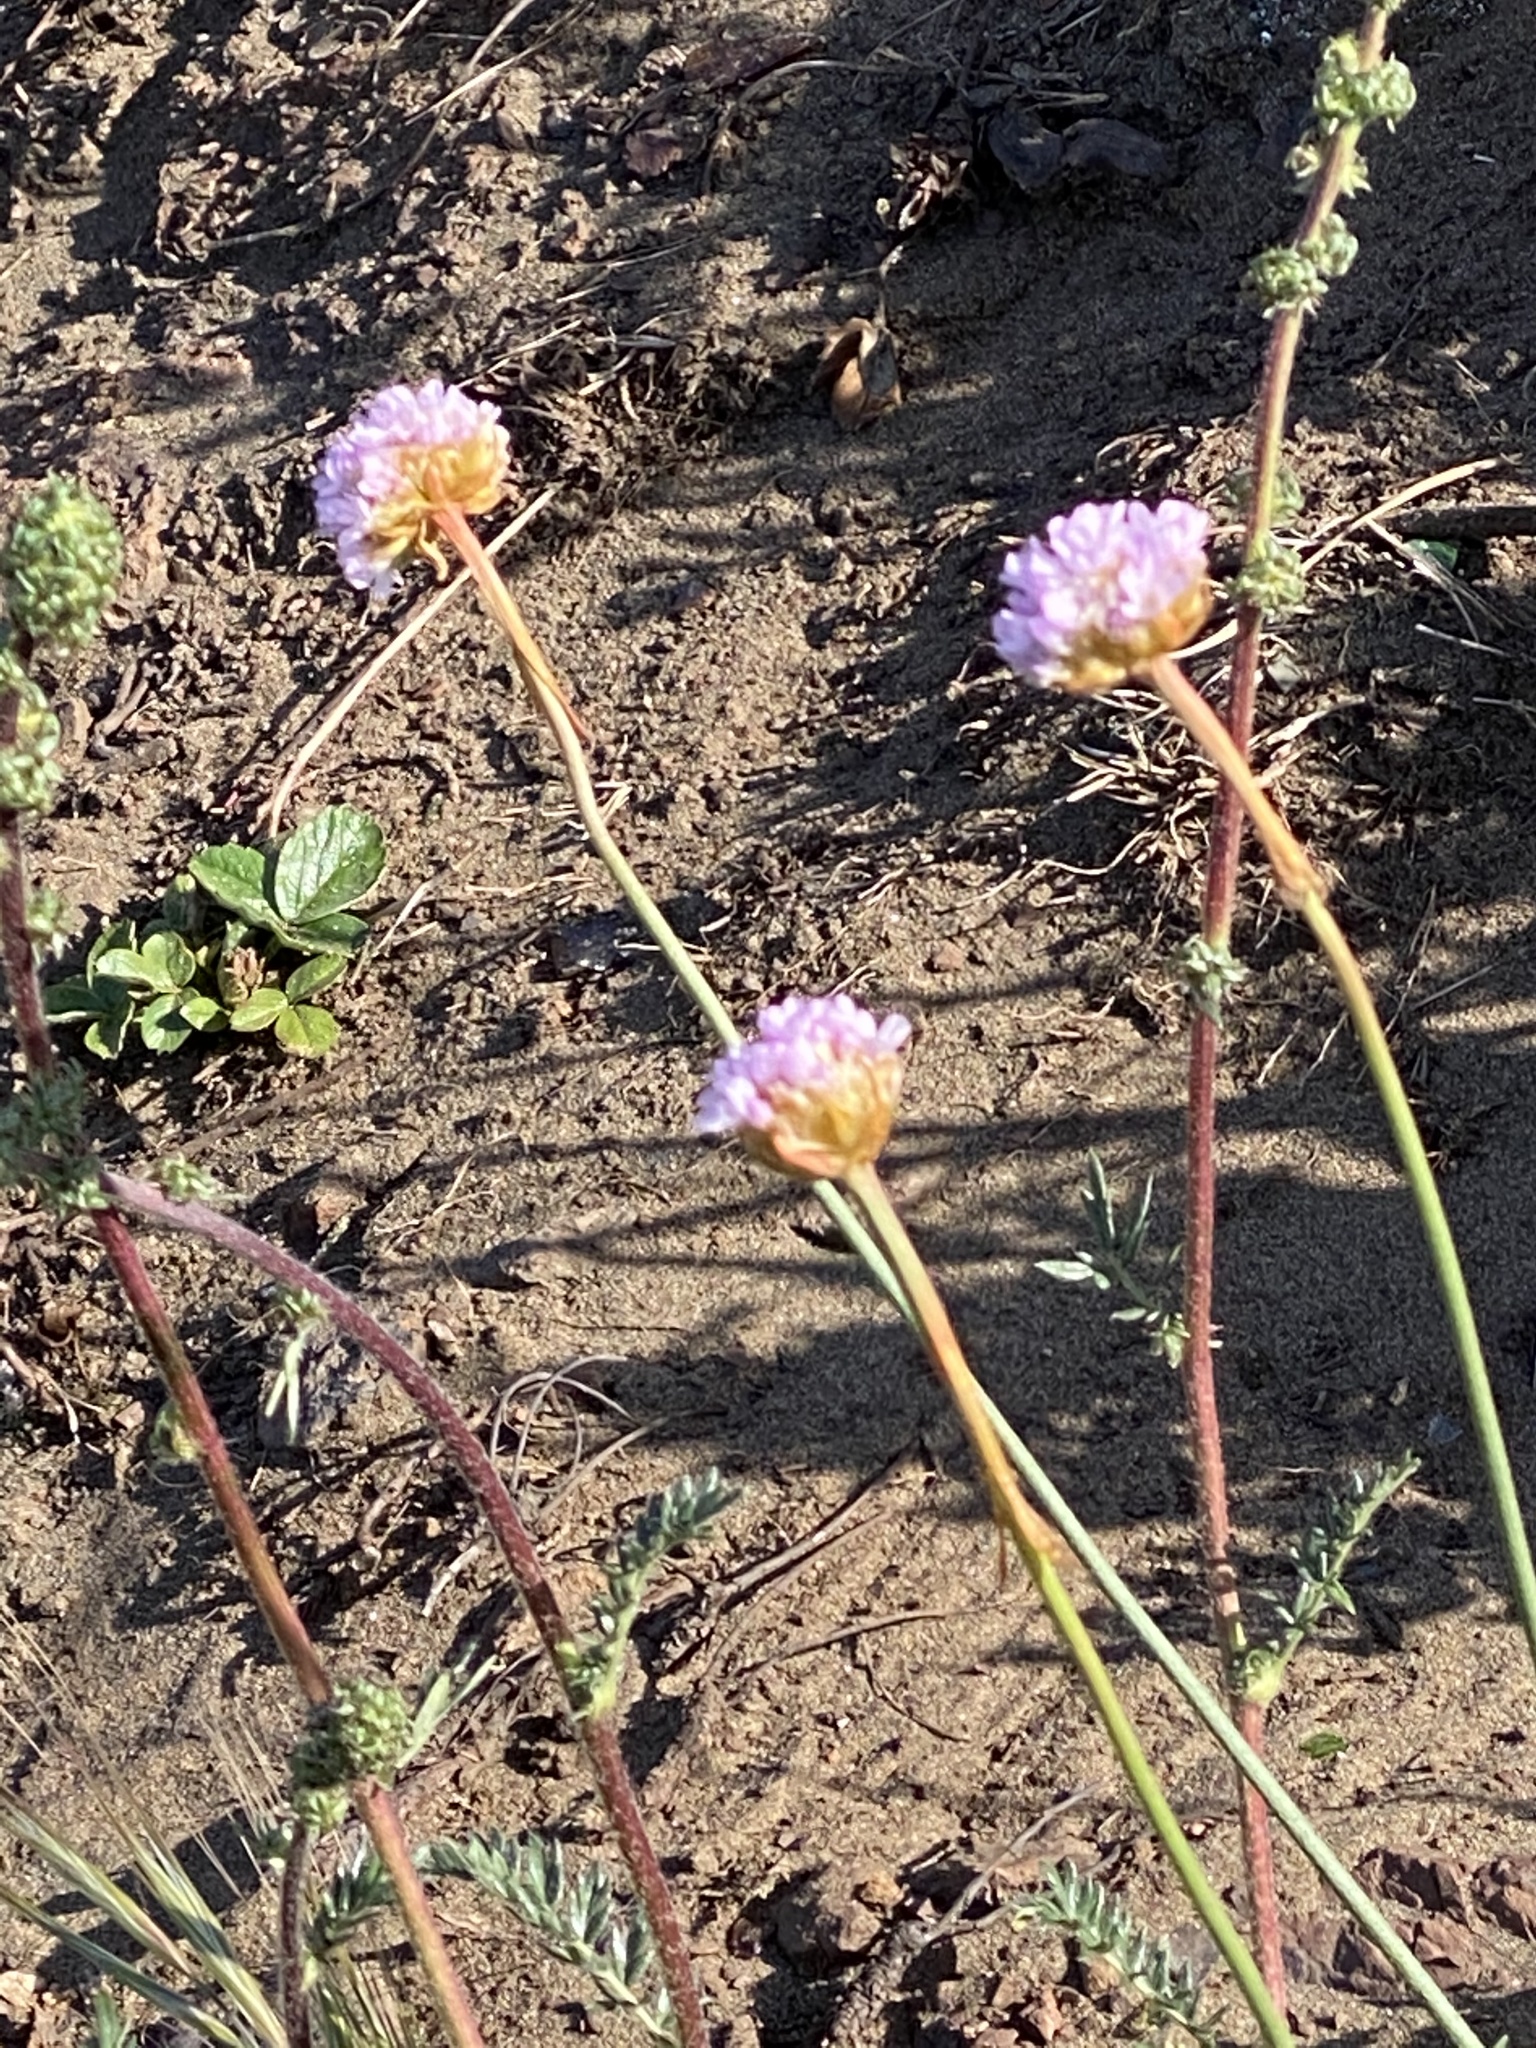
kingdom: Plantae
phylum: Tracheophyta
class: Magnoliopsida
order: Caryophyllales
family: Plumbaginaceae
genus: Armeria
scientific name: Armeria maritima
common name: Thrift
